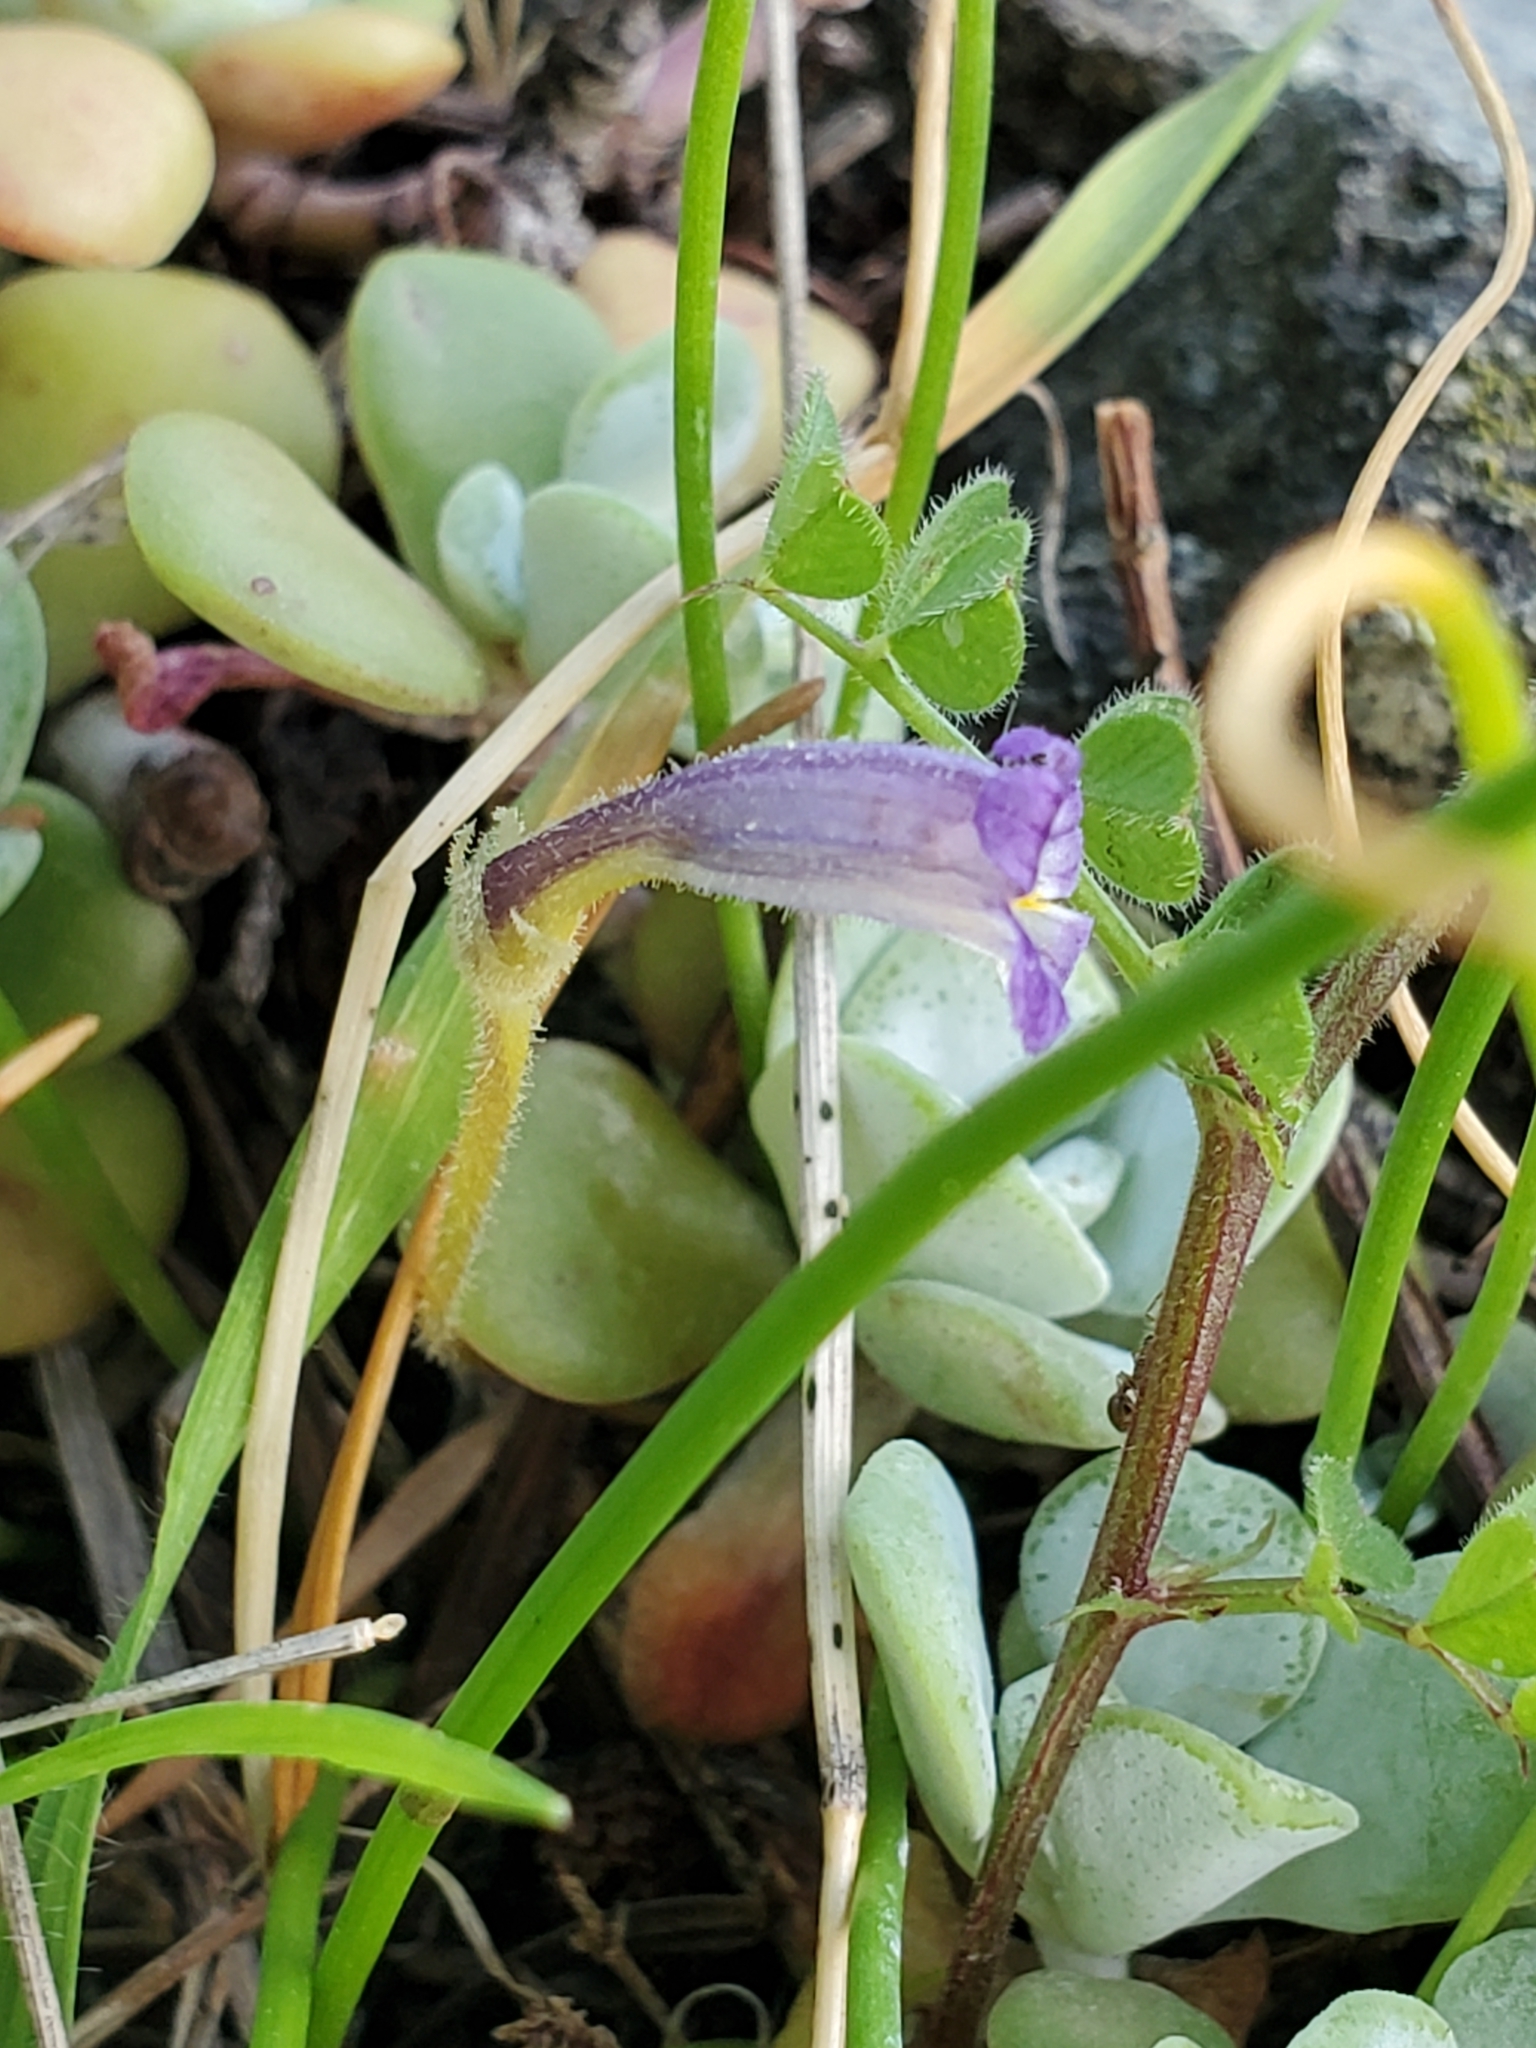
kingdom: Plantae
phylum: Tracheophyta
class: Magnoliopsida
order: Lamiales
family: Orobanchaceae
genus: Aphyllon
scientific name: Aphyllon uniflorum
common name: One-flowered broomrape
